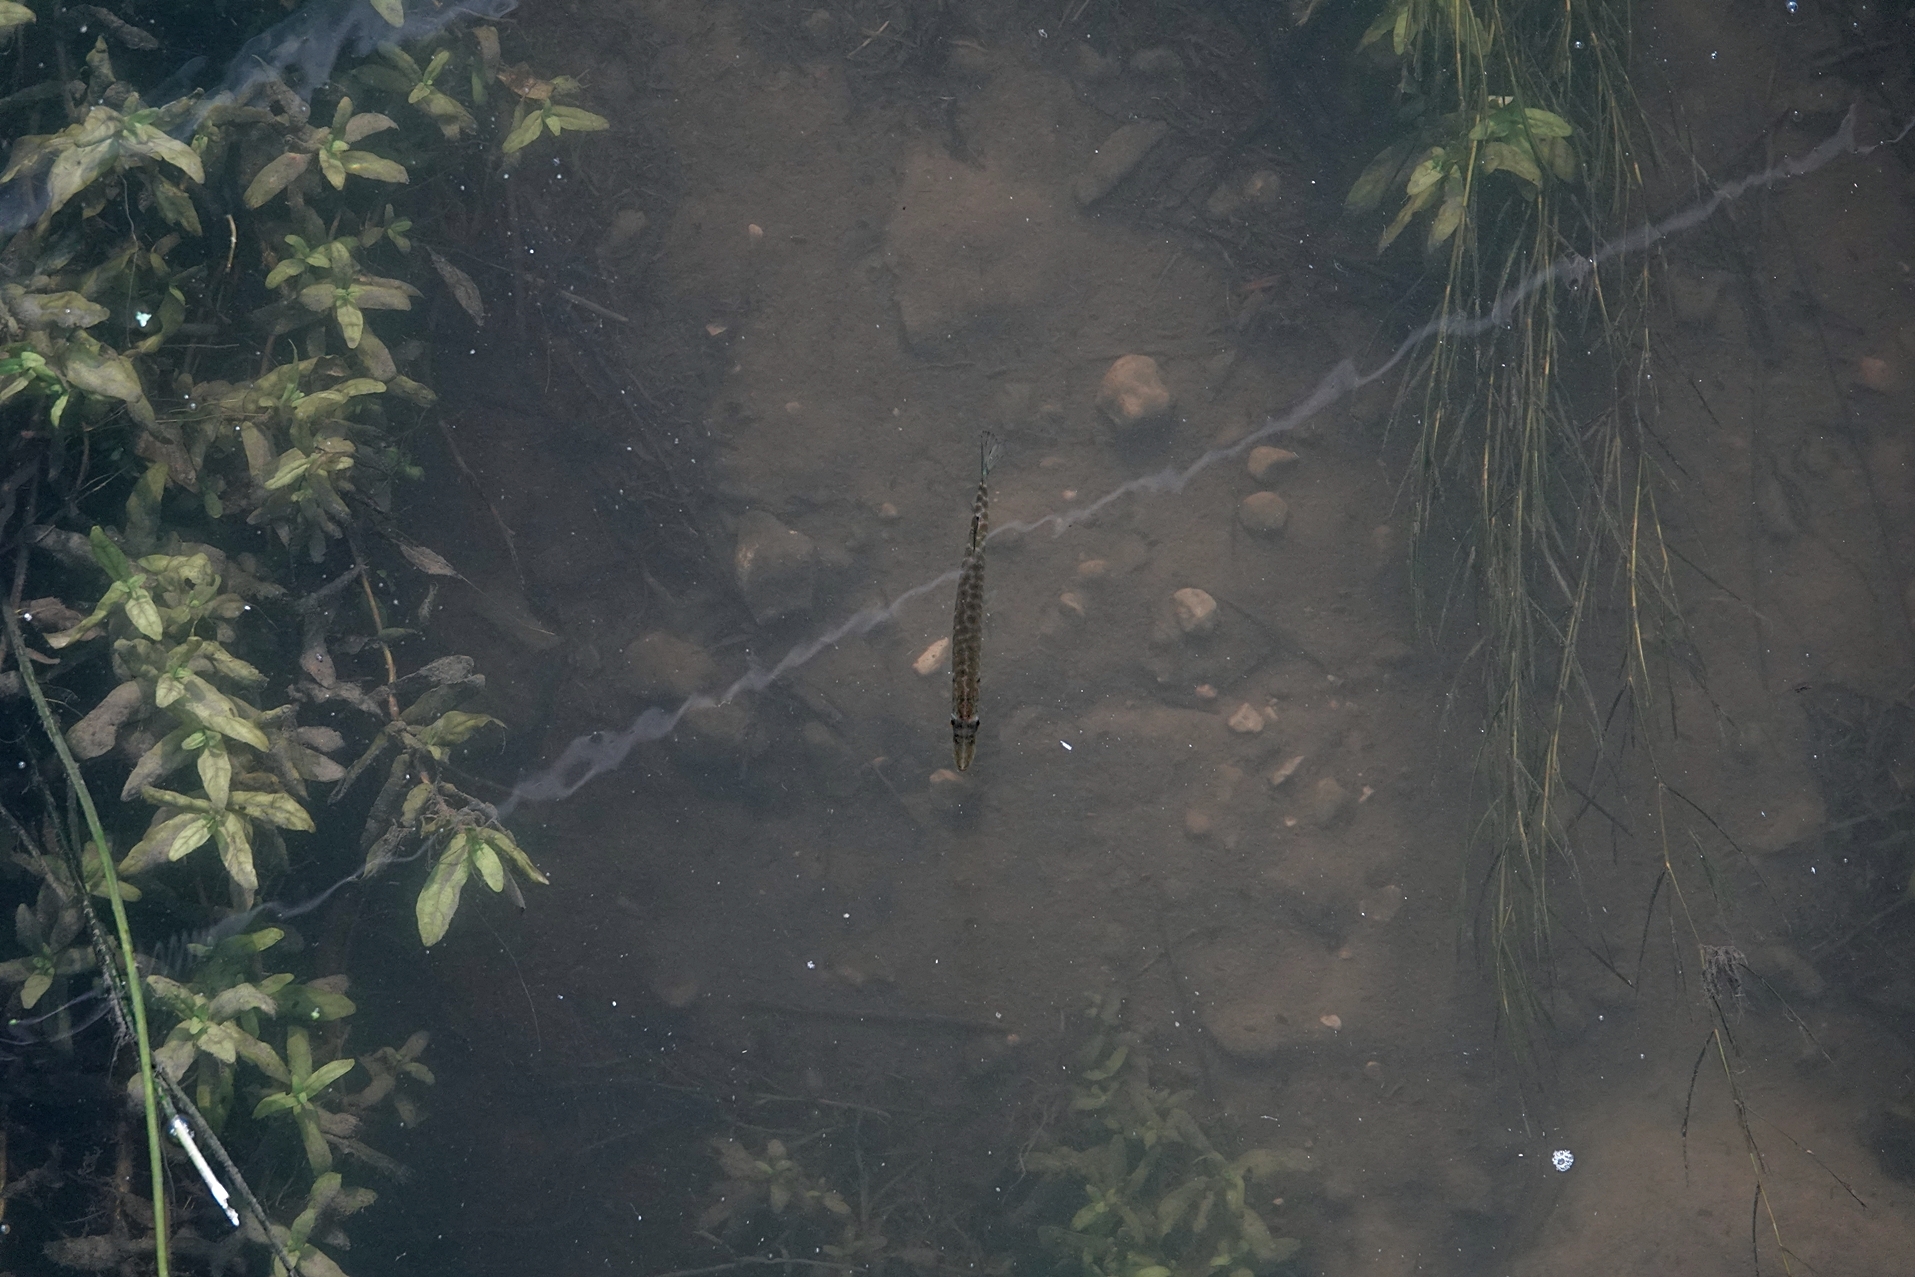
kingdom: Animalia
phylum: Chordata
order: Esociformes
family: Esocidae
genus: Esox
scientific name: Esox americanus
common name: Redfin pickerel
